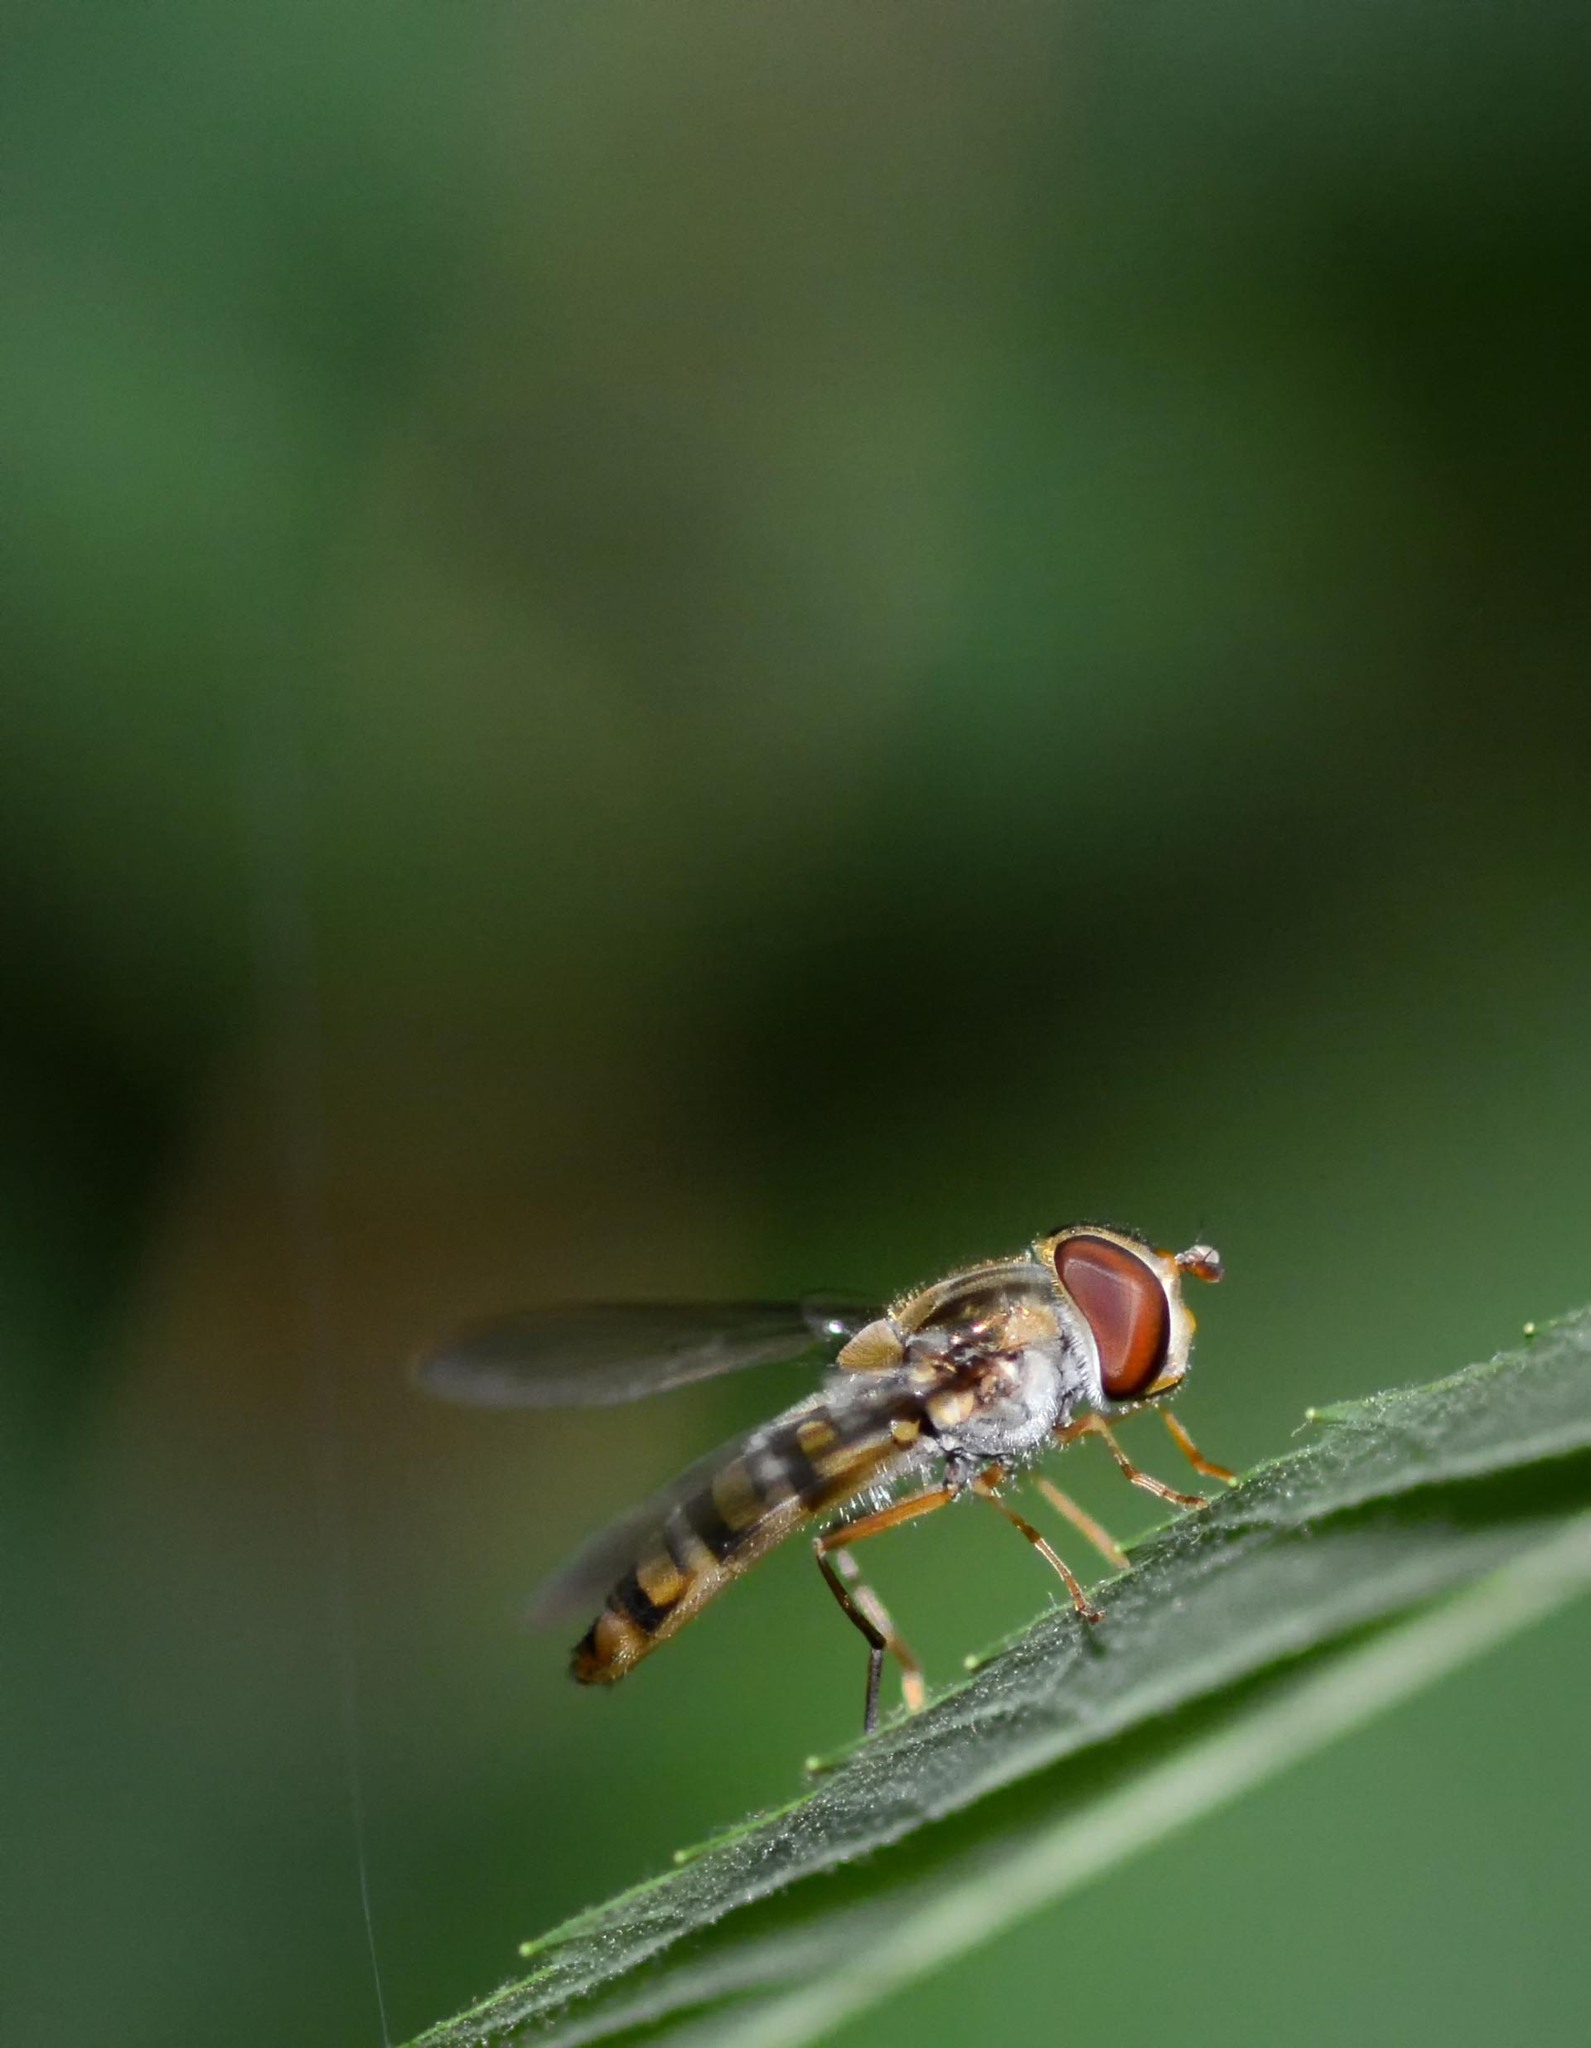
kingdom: Animalia
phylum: Arthropoda
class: Insecta
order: Diptera
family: Syrphidae
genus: Episyrphus
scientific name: Episyrphus balteatus
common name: Marmalade hoverfly
